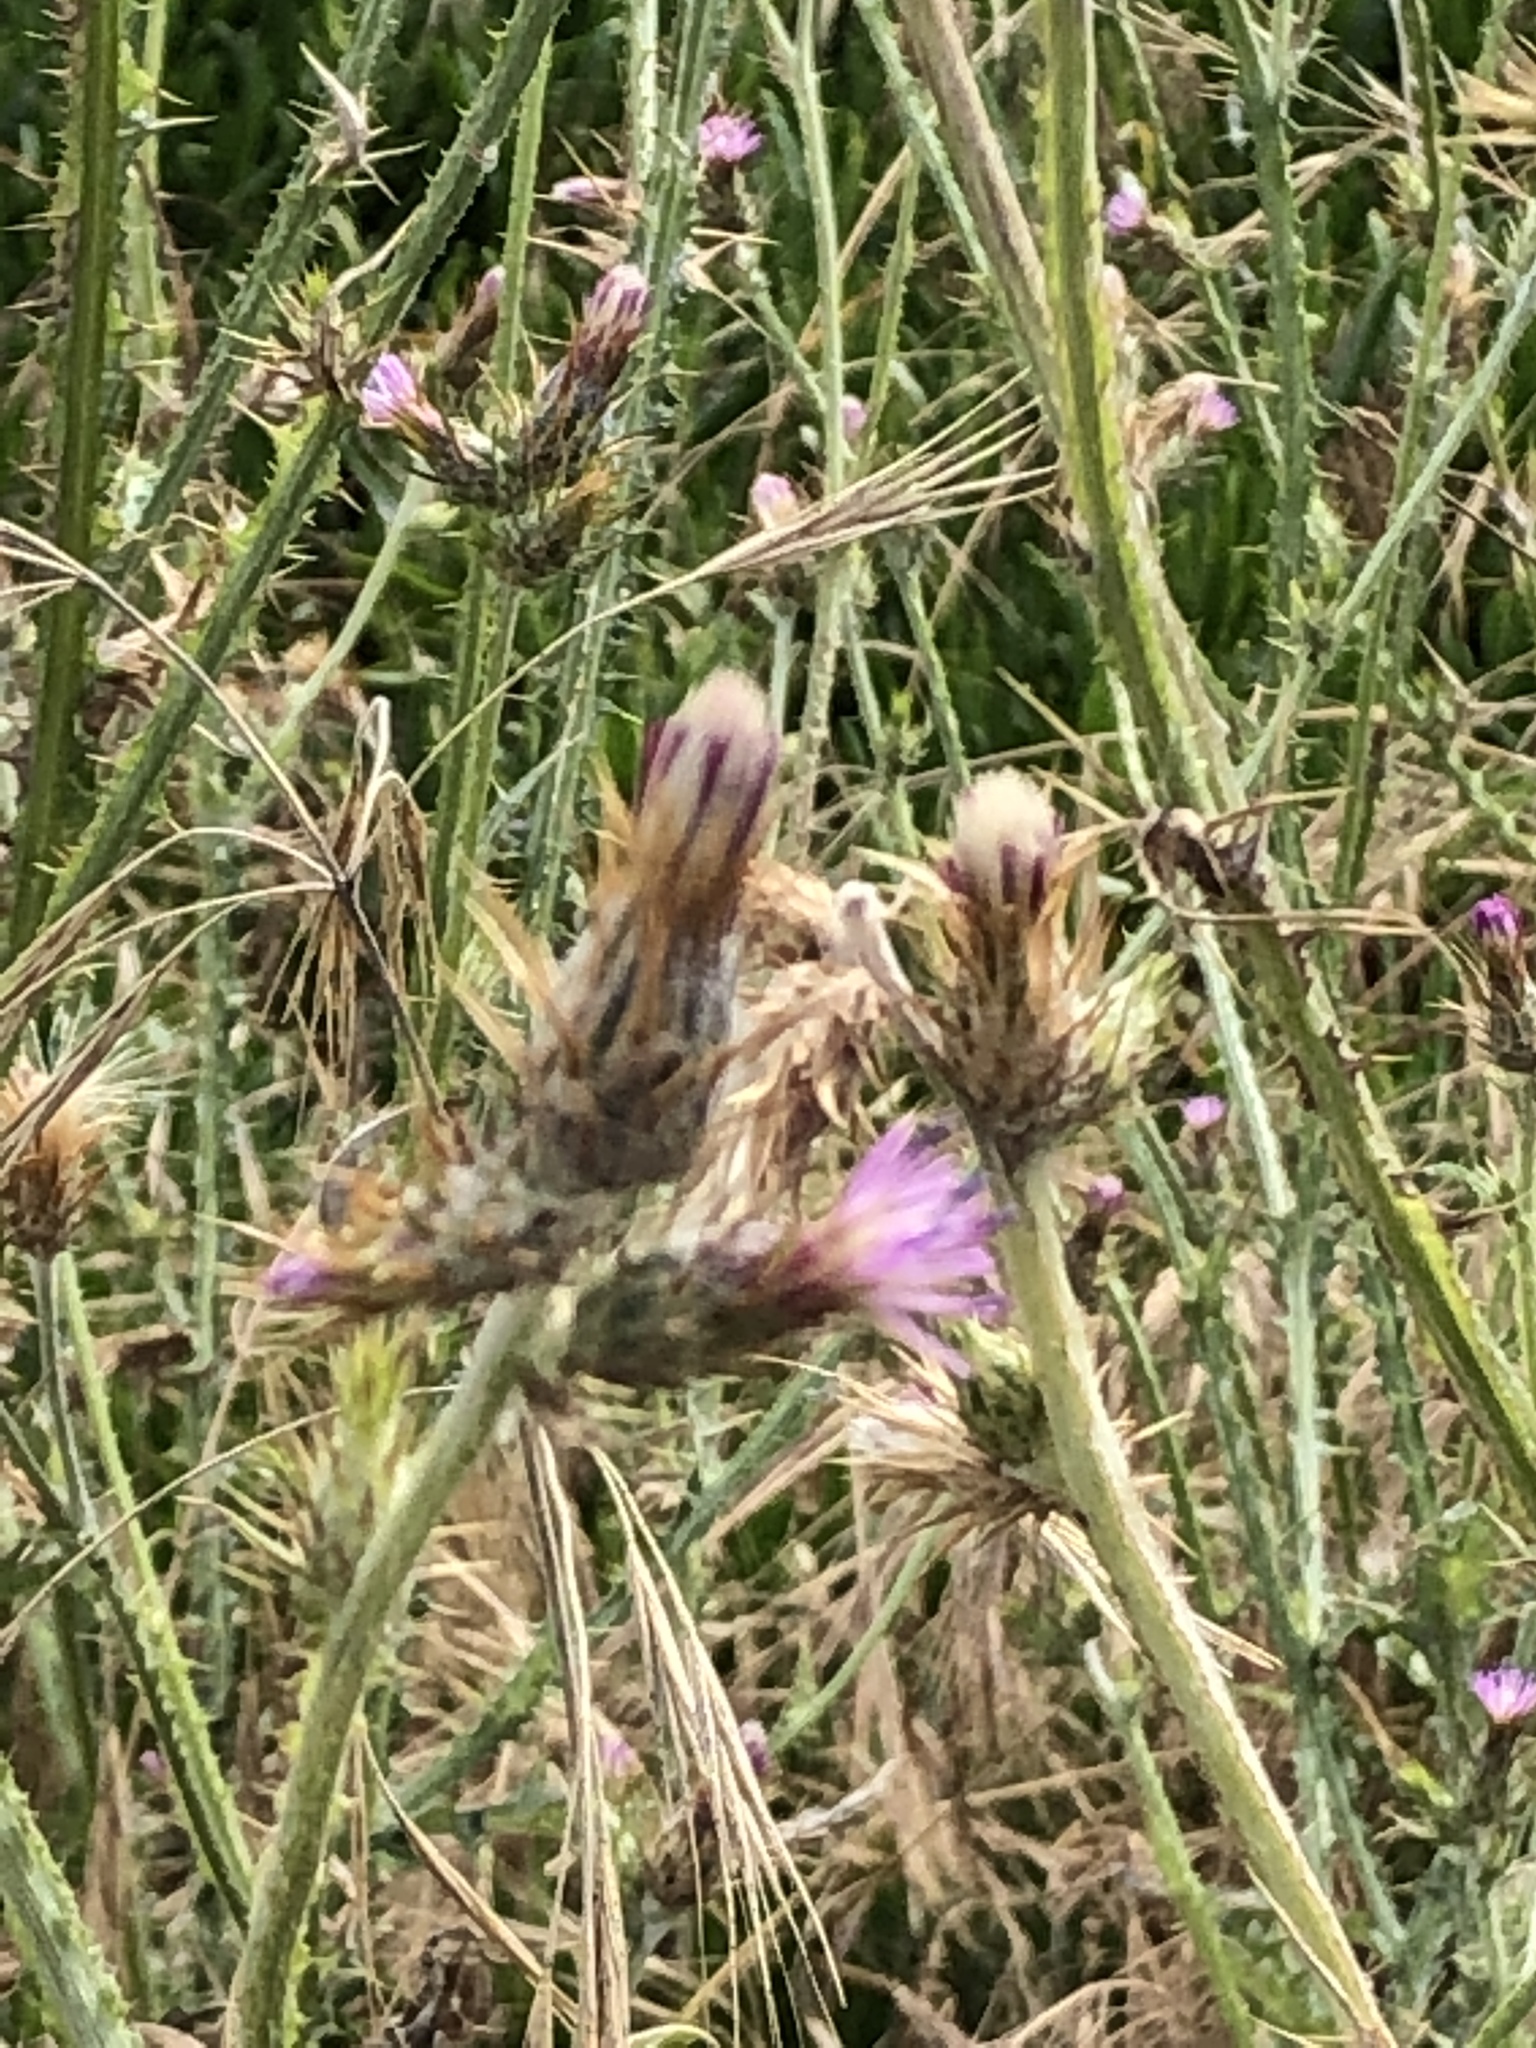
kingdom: Plantae
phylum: Tracheophyta
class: Magnoliopsida
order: Asterales
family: Asteraceae
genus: Carduus
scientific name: Carduus pycnocephalus
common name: Plymouth thistle
